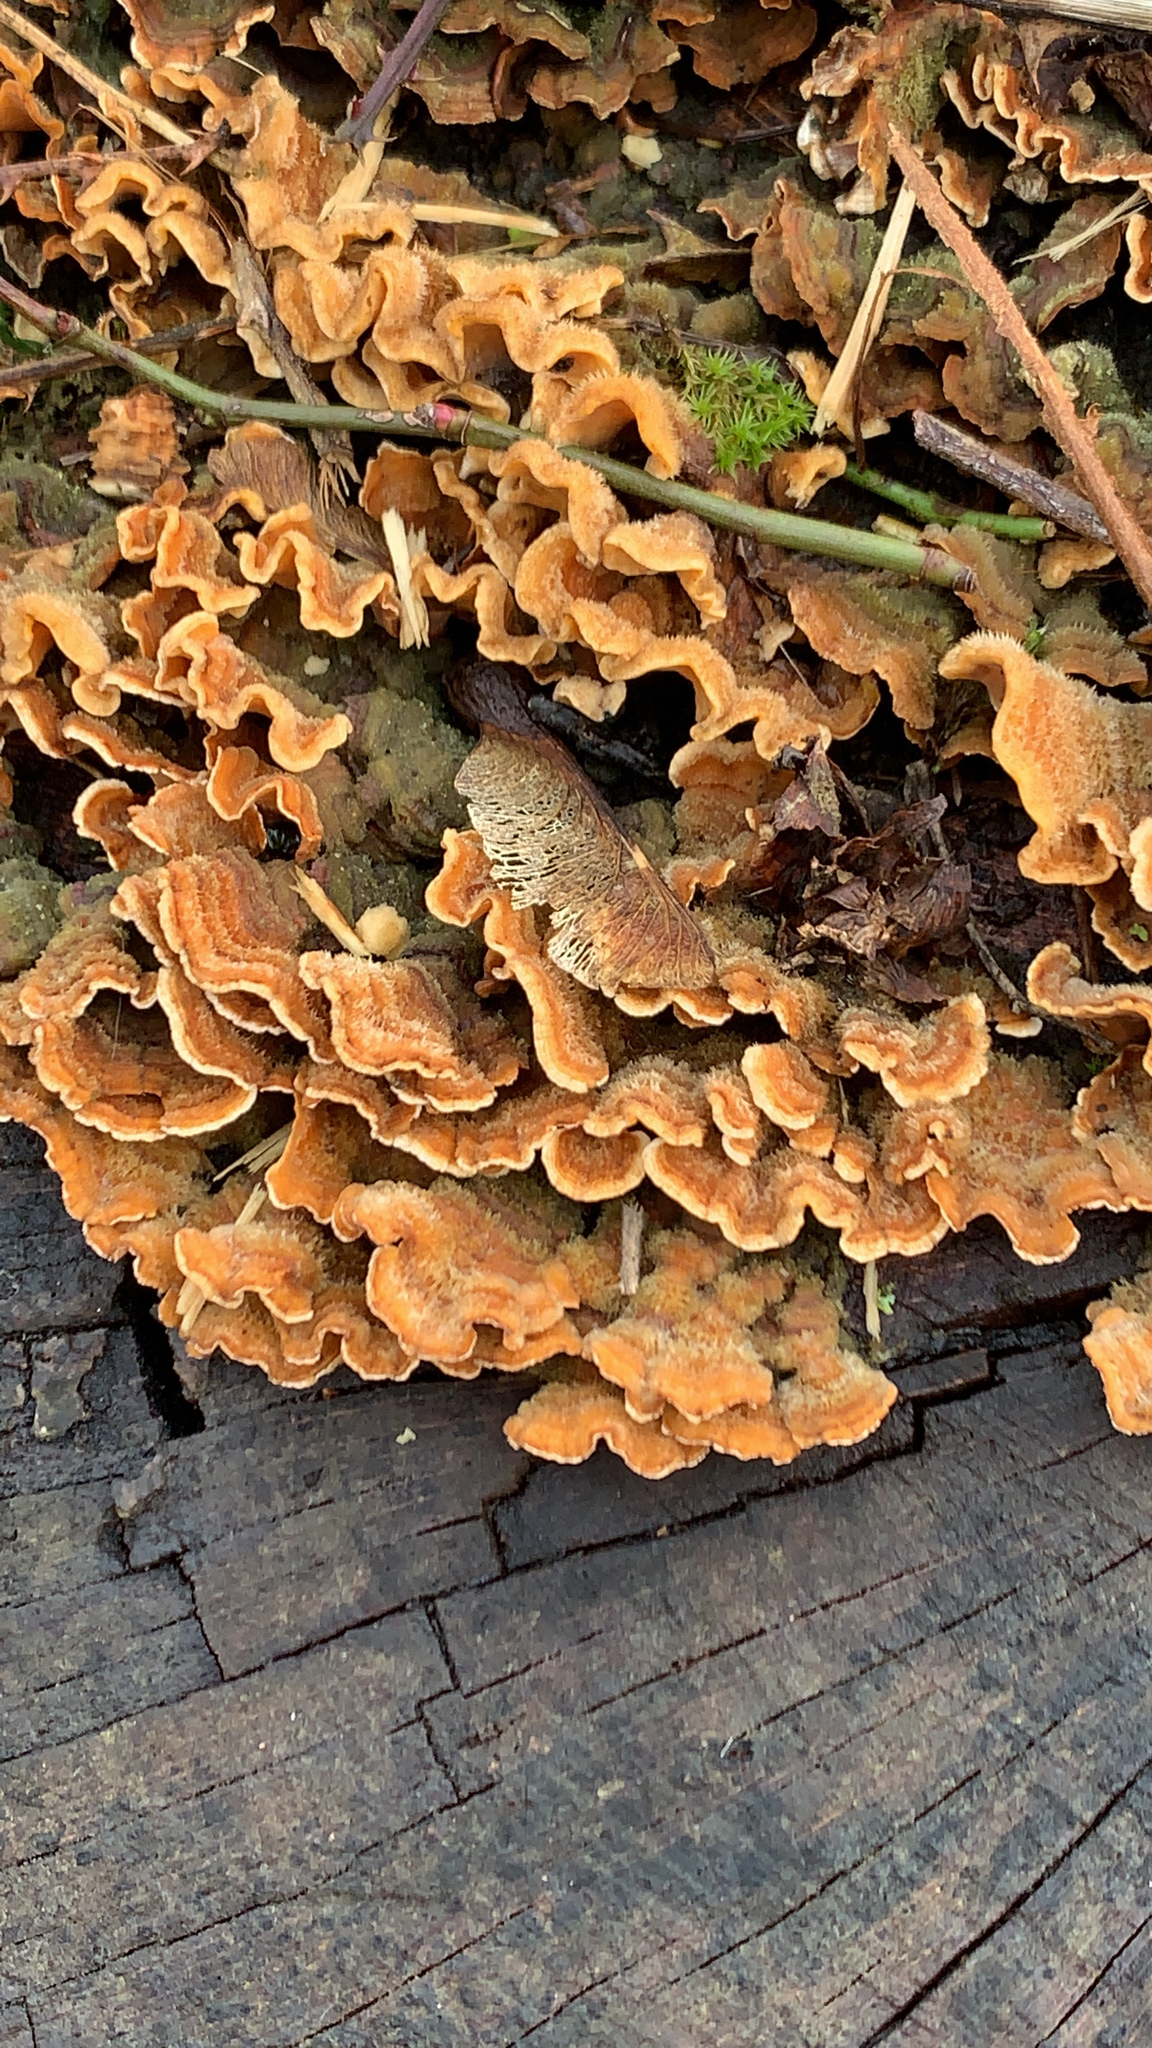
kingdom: Fungi
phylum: Basidiomycota
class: Agaricomycetes
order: Russulales
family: Stereaceae
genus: Stereum
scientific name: Stereum hirsutum
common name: Hairy curtain crust
